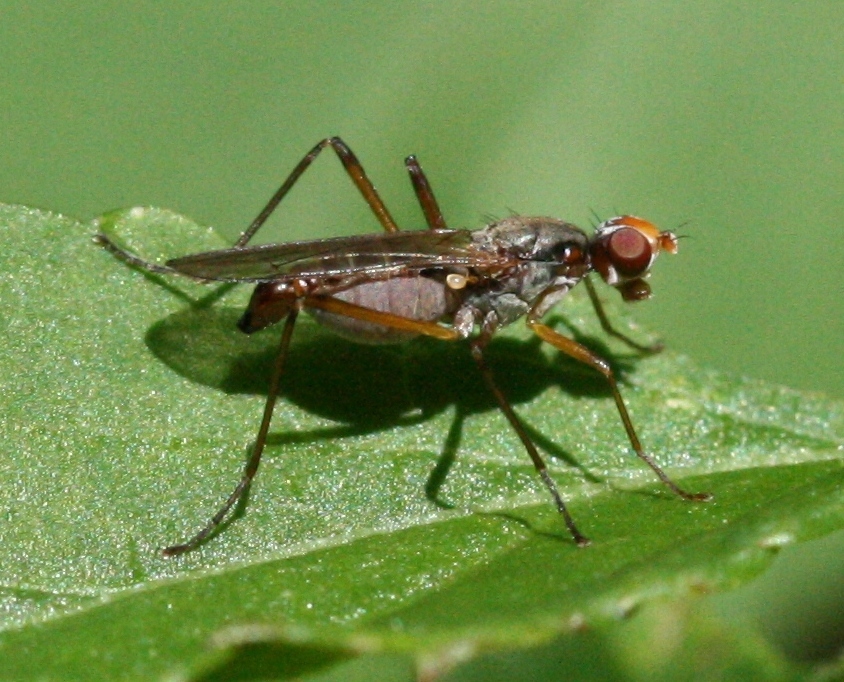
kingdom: Animalia
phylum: Arthropoda
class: Insecta
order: Diptera
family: Micropezidae
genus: Calobata
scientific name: Calobata petronella
